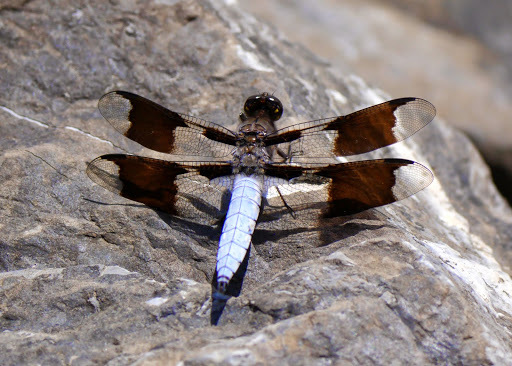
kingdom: Animalia
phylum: Arthropoda
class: Insecta
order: Odonata
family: Libellulidae
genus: Plathemis
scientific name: Plathemis lydia
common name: Common whitetail
